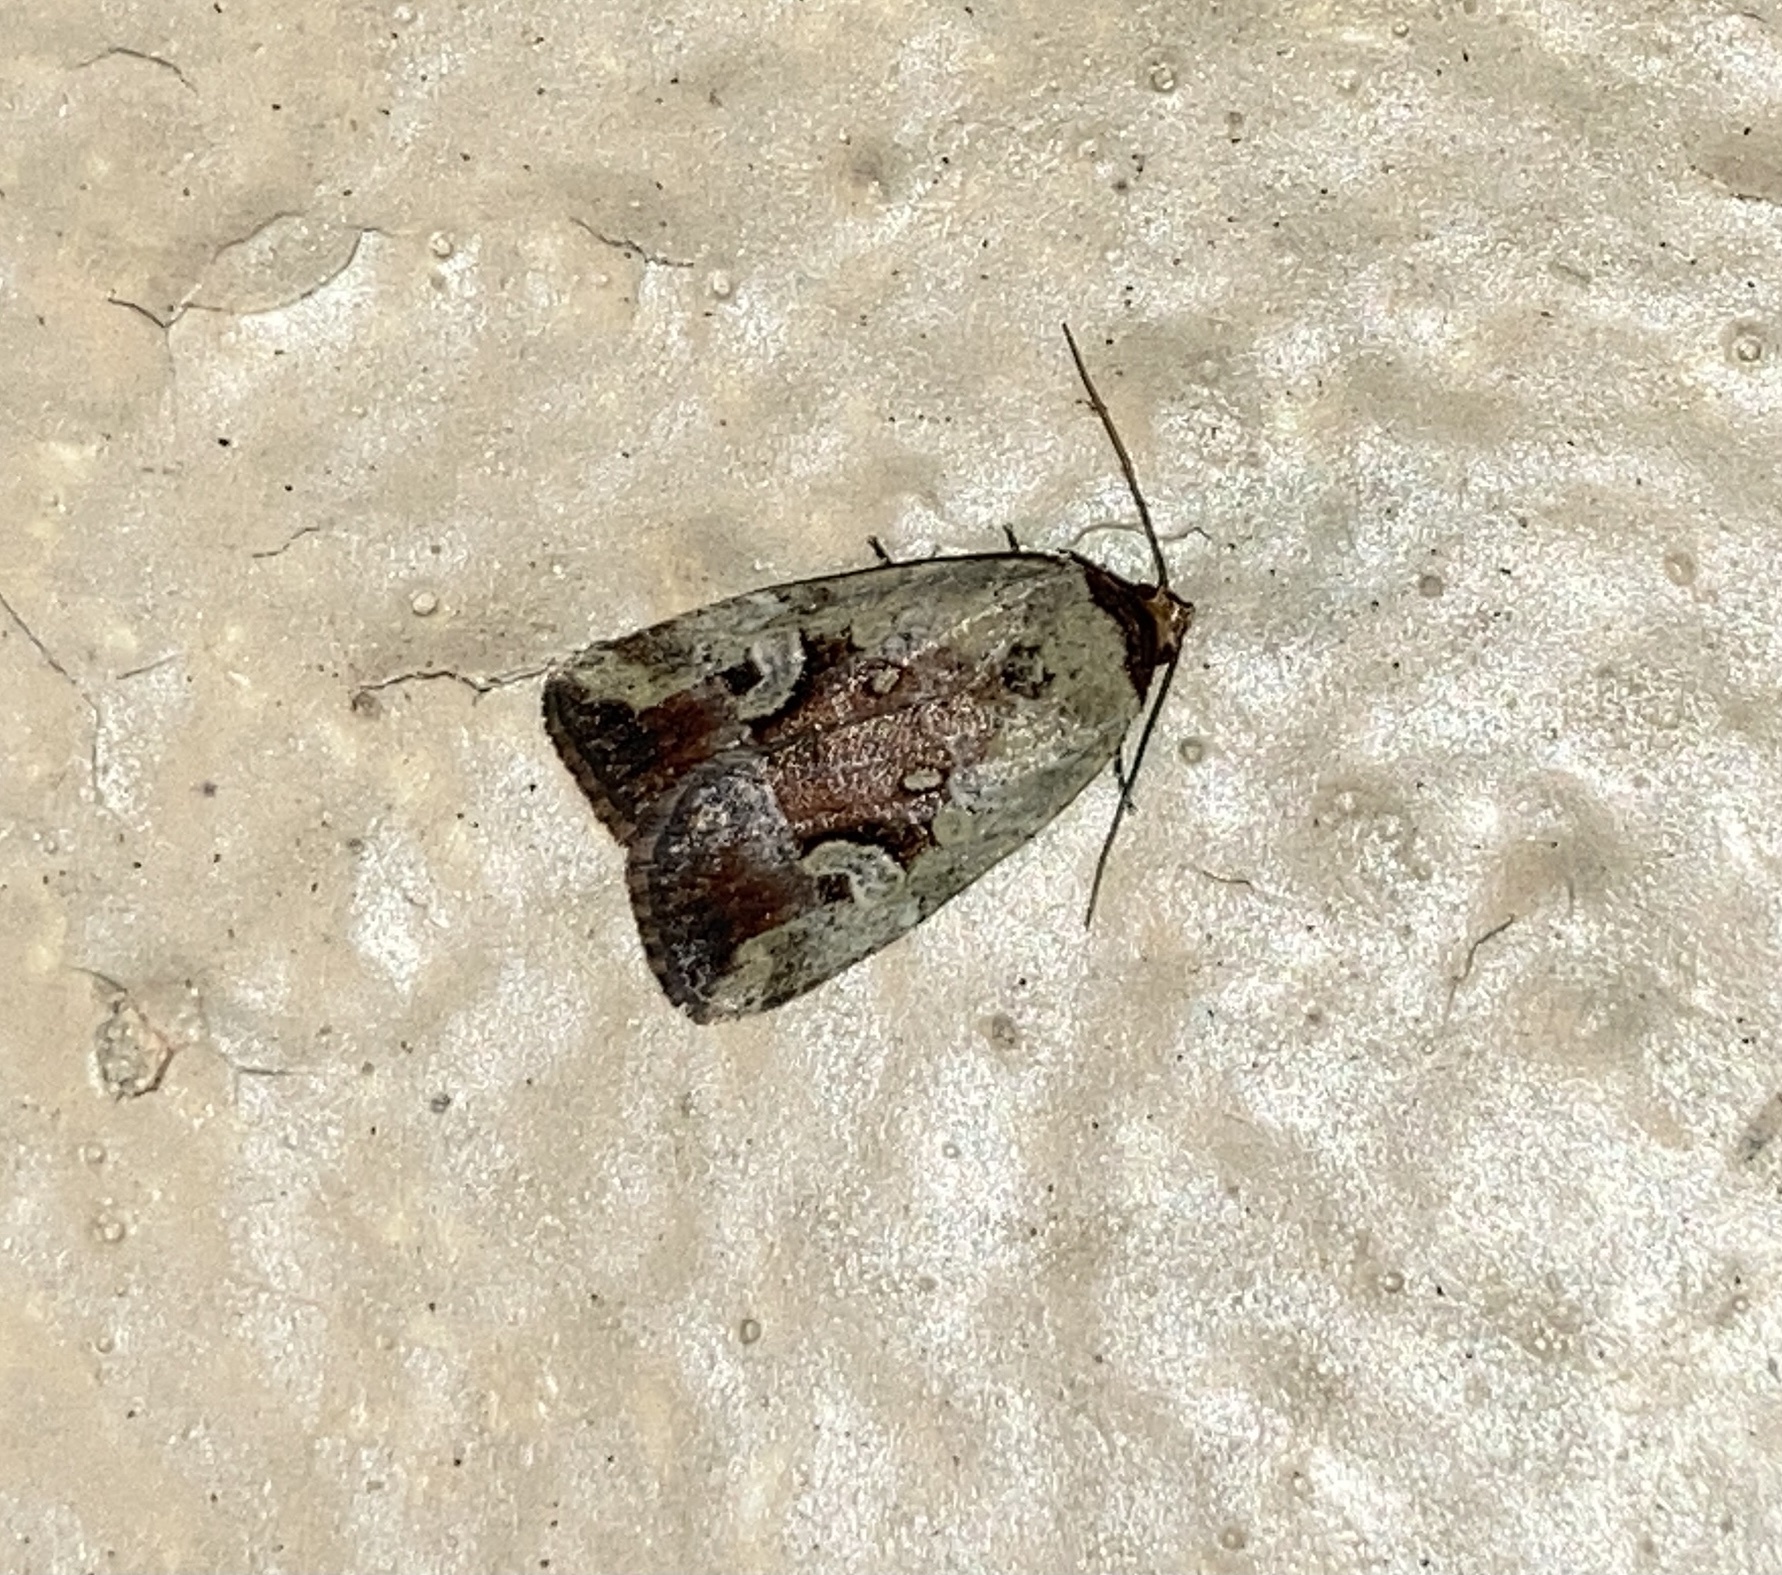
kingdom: Animalia
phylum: Arthropoda
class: Insecta
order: Lepidoptera
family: Noctuidae
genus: Elaphria
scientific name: Elaphria alapallida
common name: Pale-winged midget
